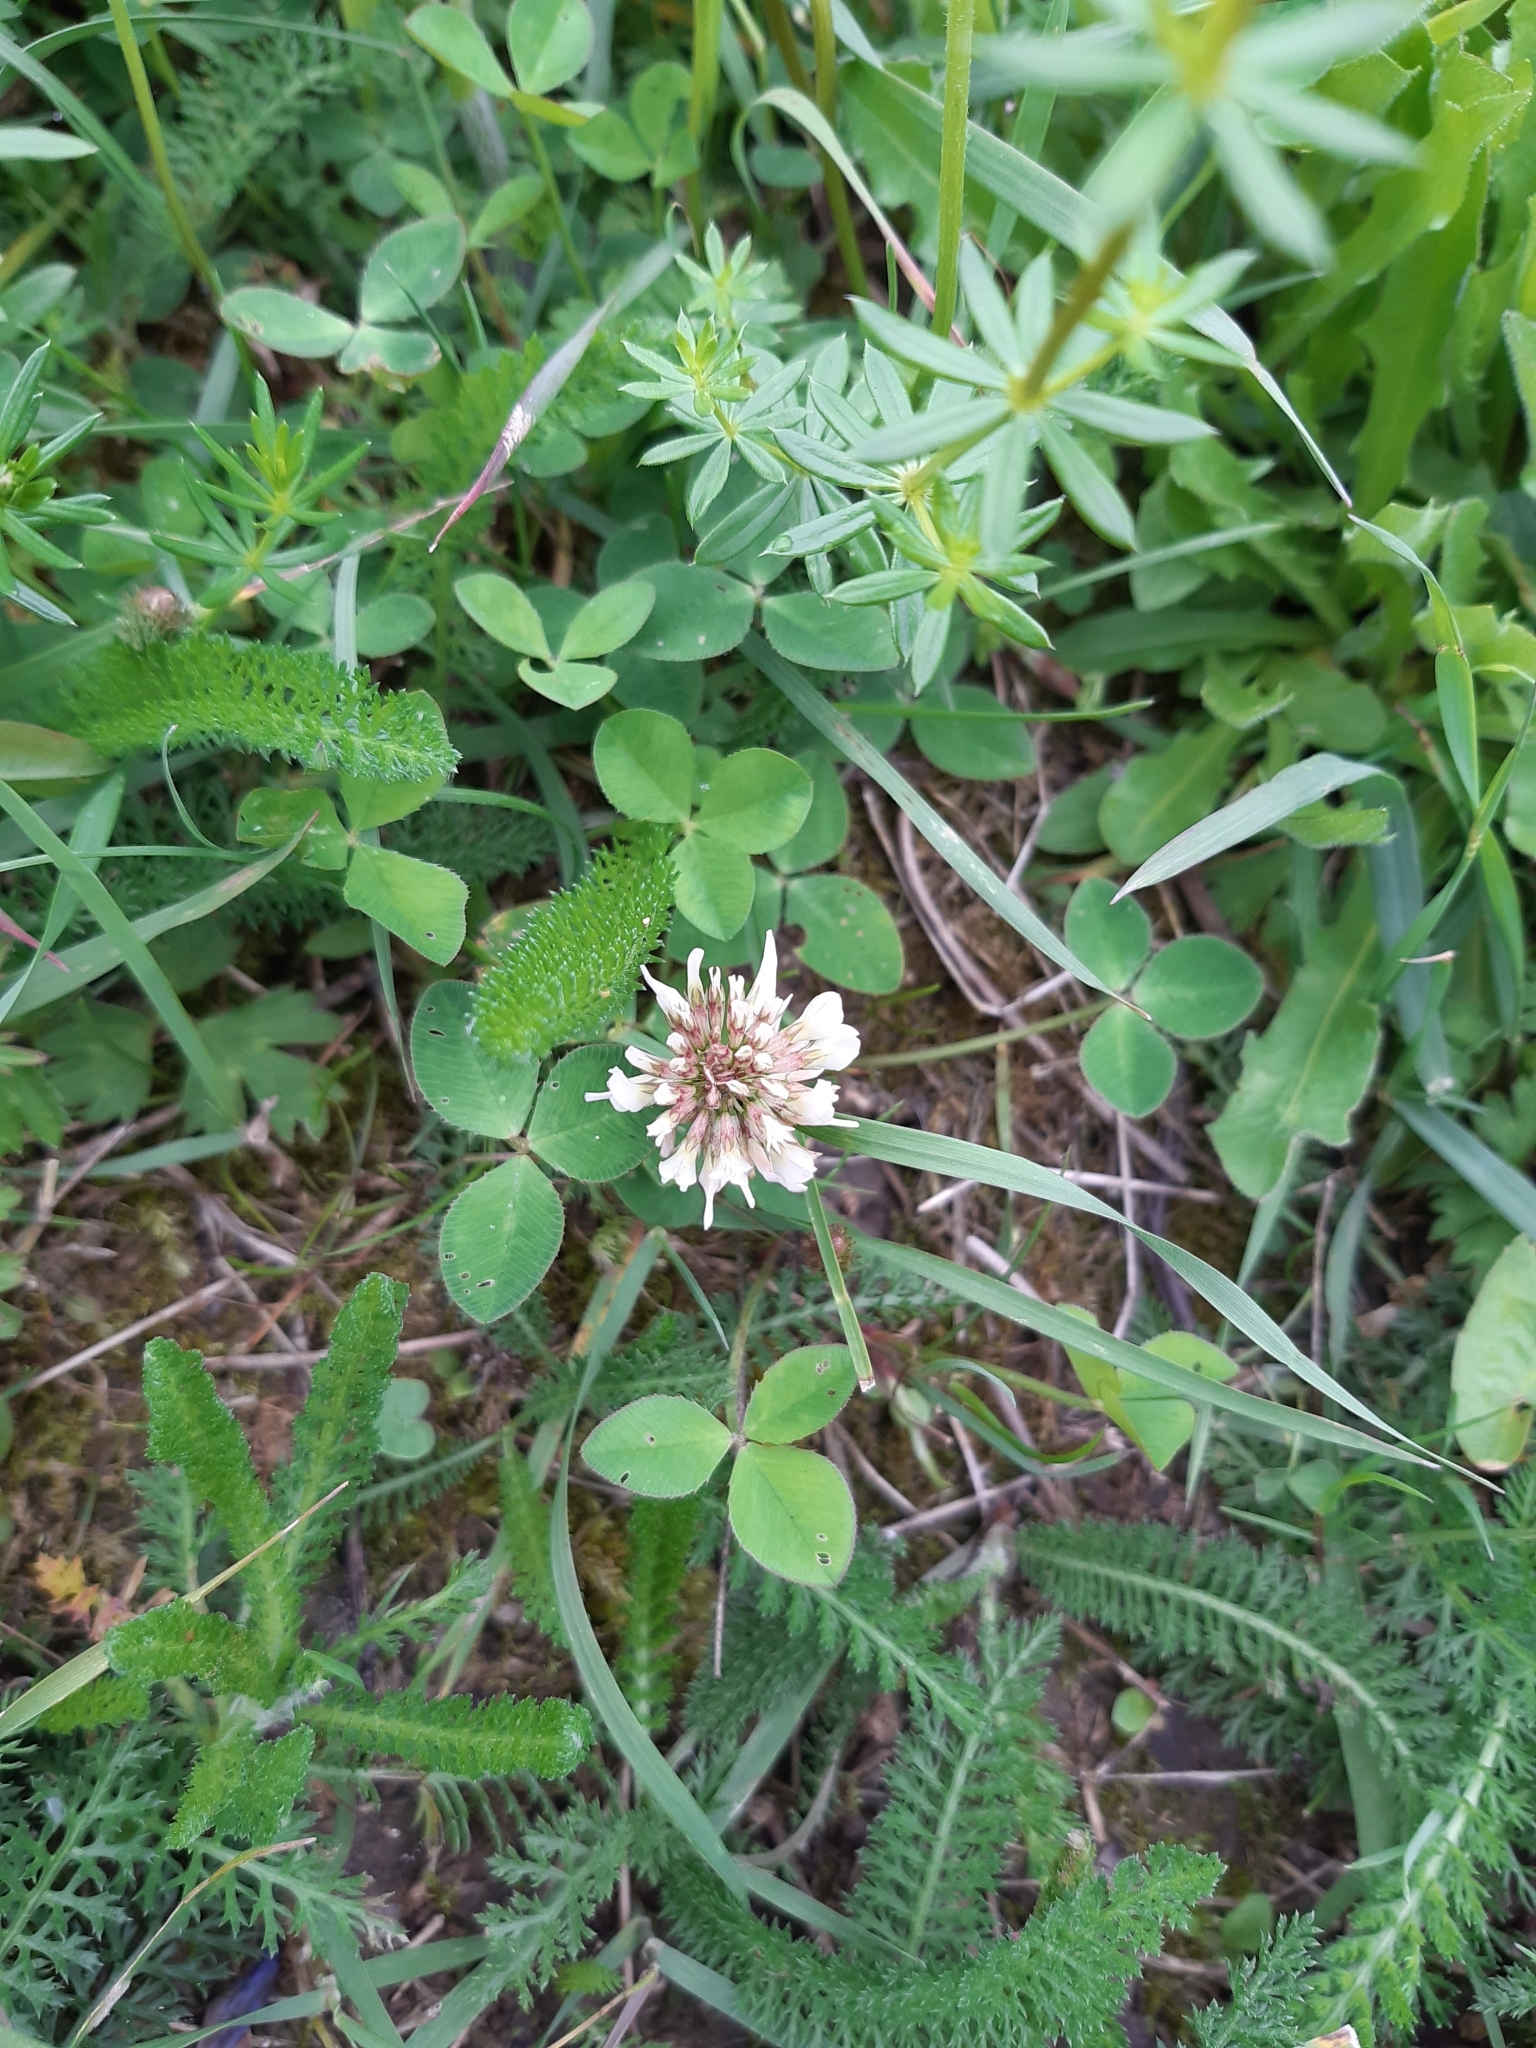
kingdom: Plantae
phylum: Tracheophyta
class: Magnoliopsida
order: Fabales
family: Fabaceae
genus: Trifolium
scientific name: Trifolium repens
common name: White clover
